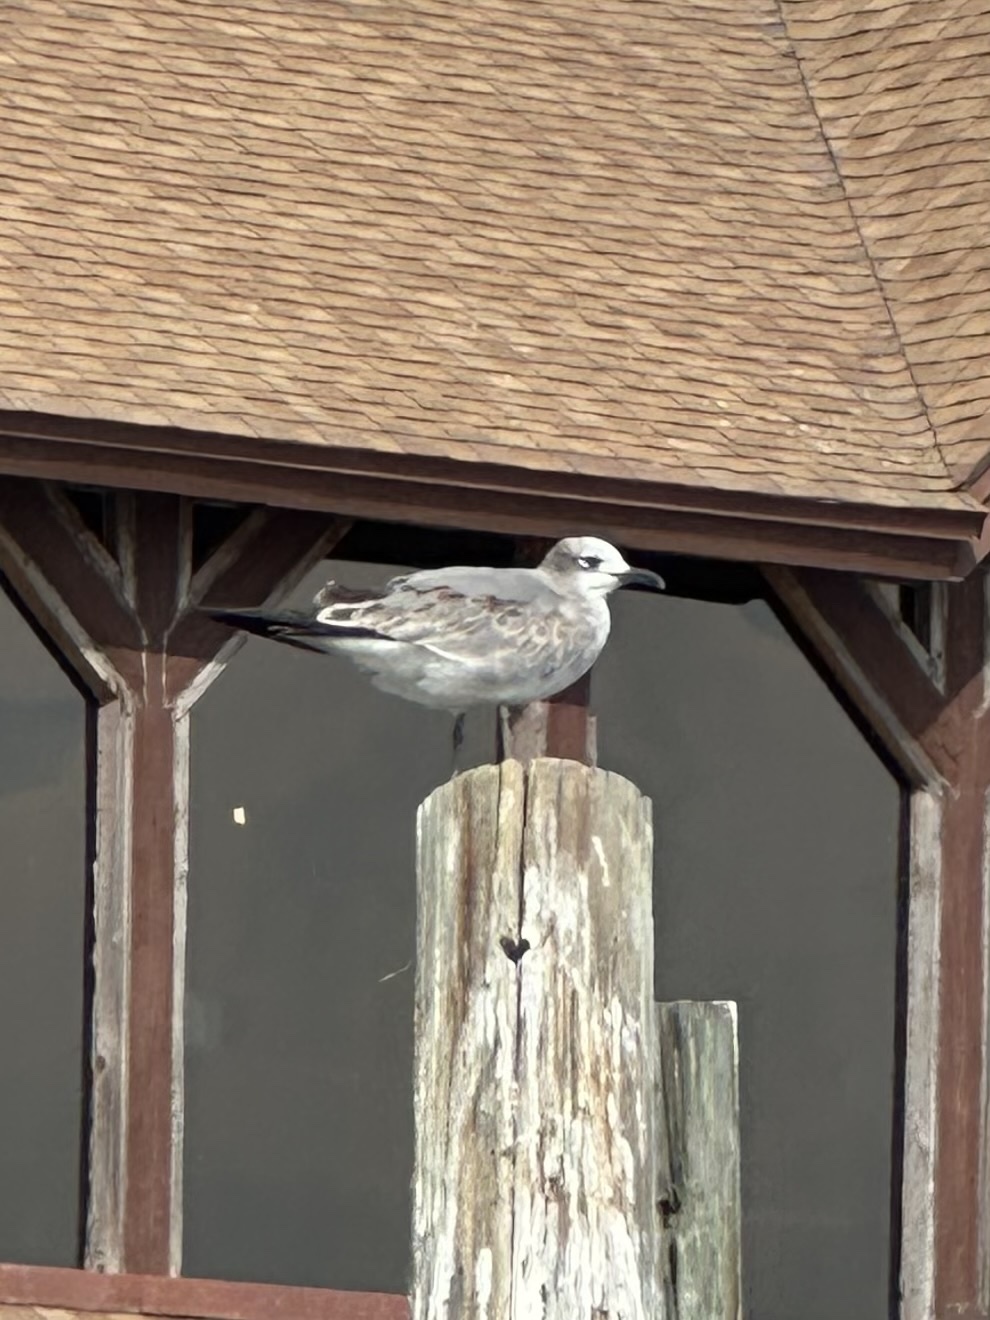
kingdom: Animalia
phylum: Chordata
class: Aves
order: Charadriiformes
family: Laridae
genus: Leucophaeus
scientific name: Leucophaeus atricilla
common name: Laughing gull
